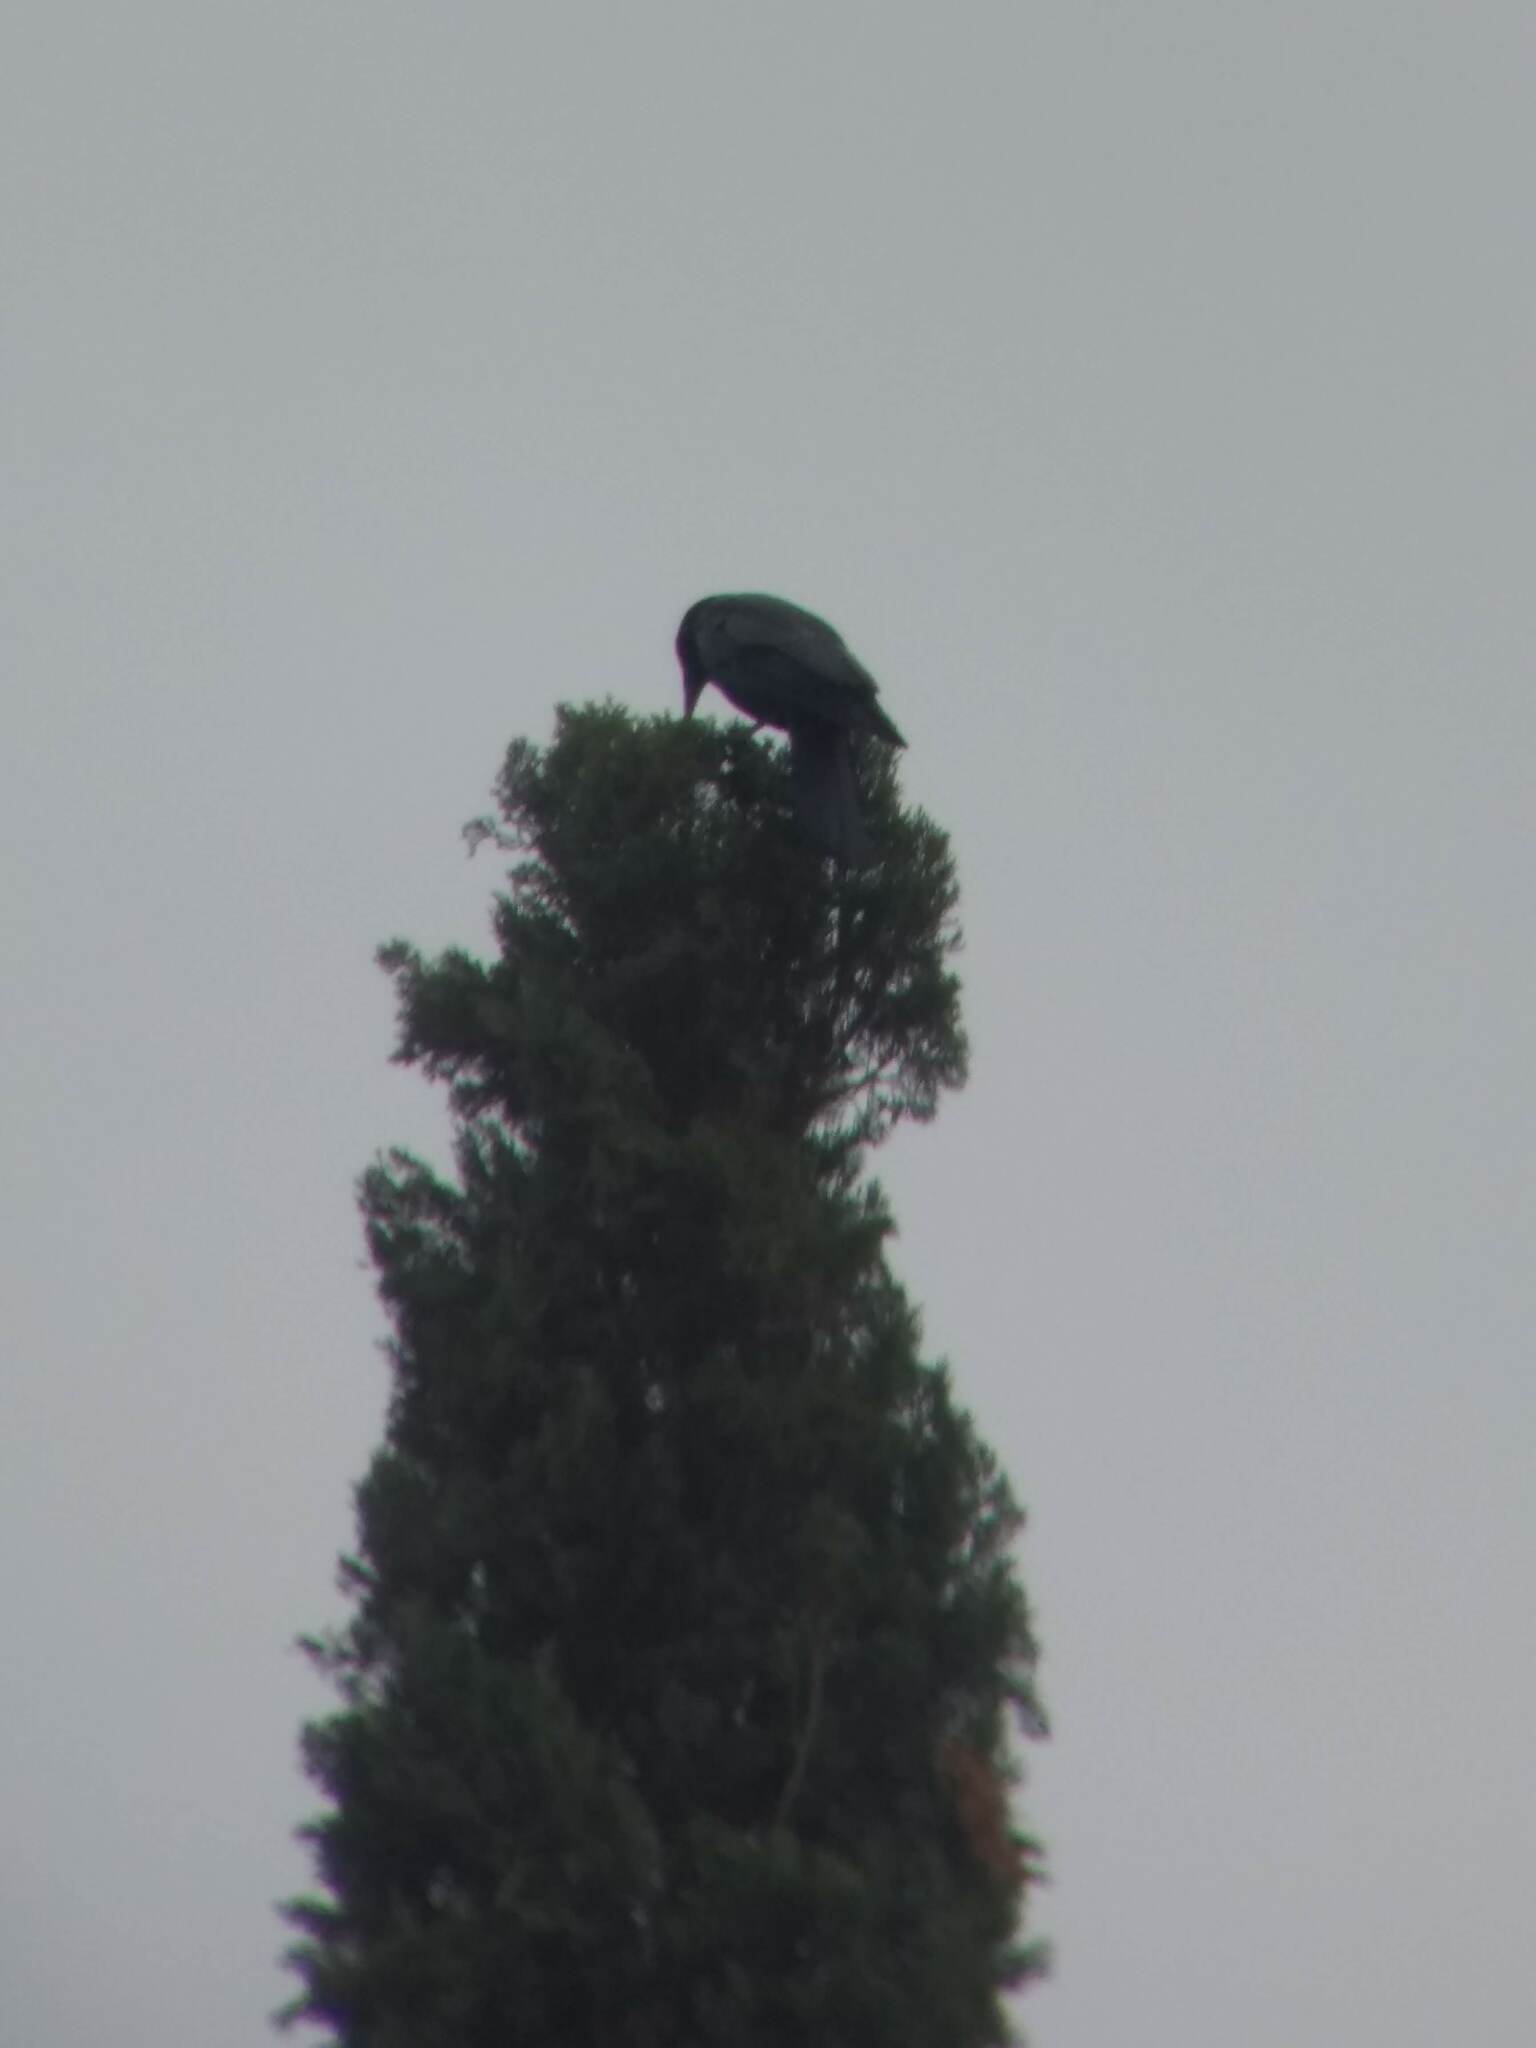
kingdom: Animalia
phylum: Chordata
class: Aves
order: Passeriformes
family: Corvidae
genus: Corvus
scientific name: Corvus brachyrhynchos
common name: American crow
